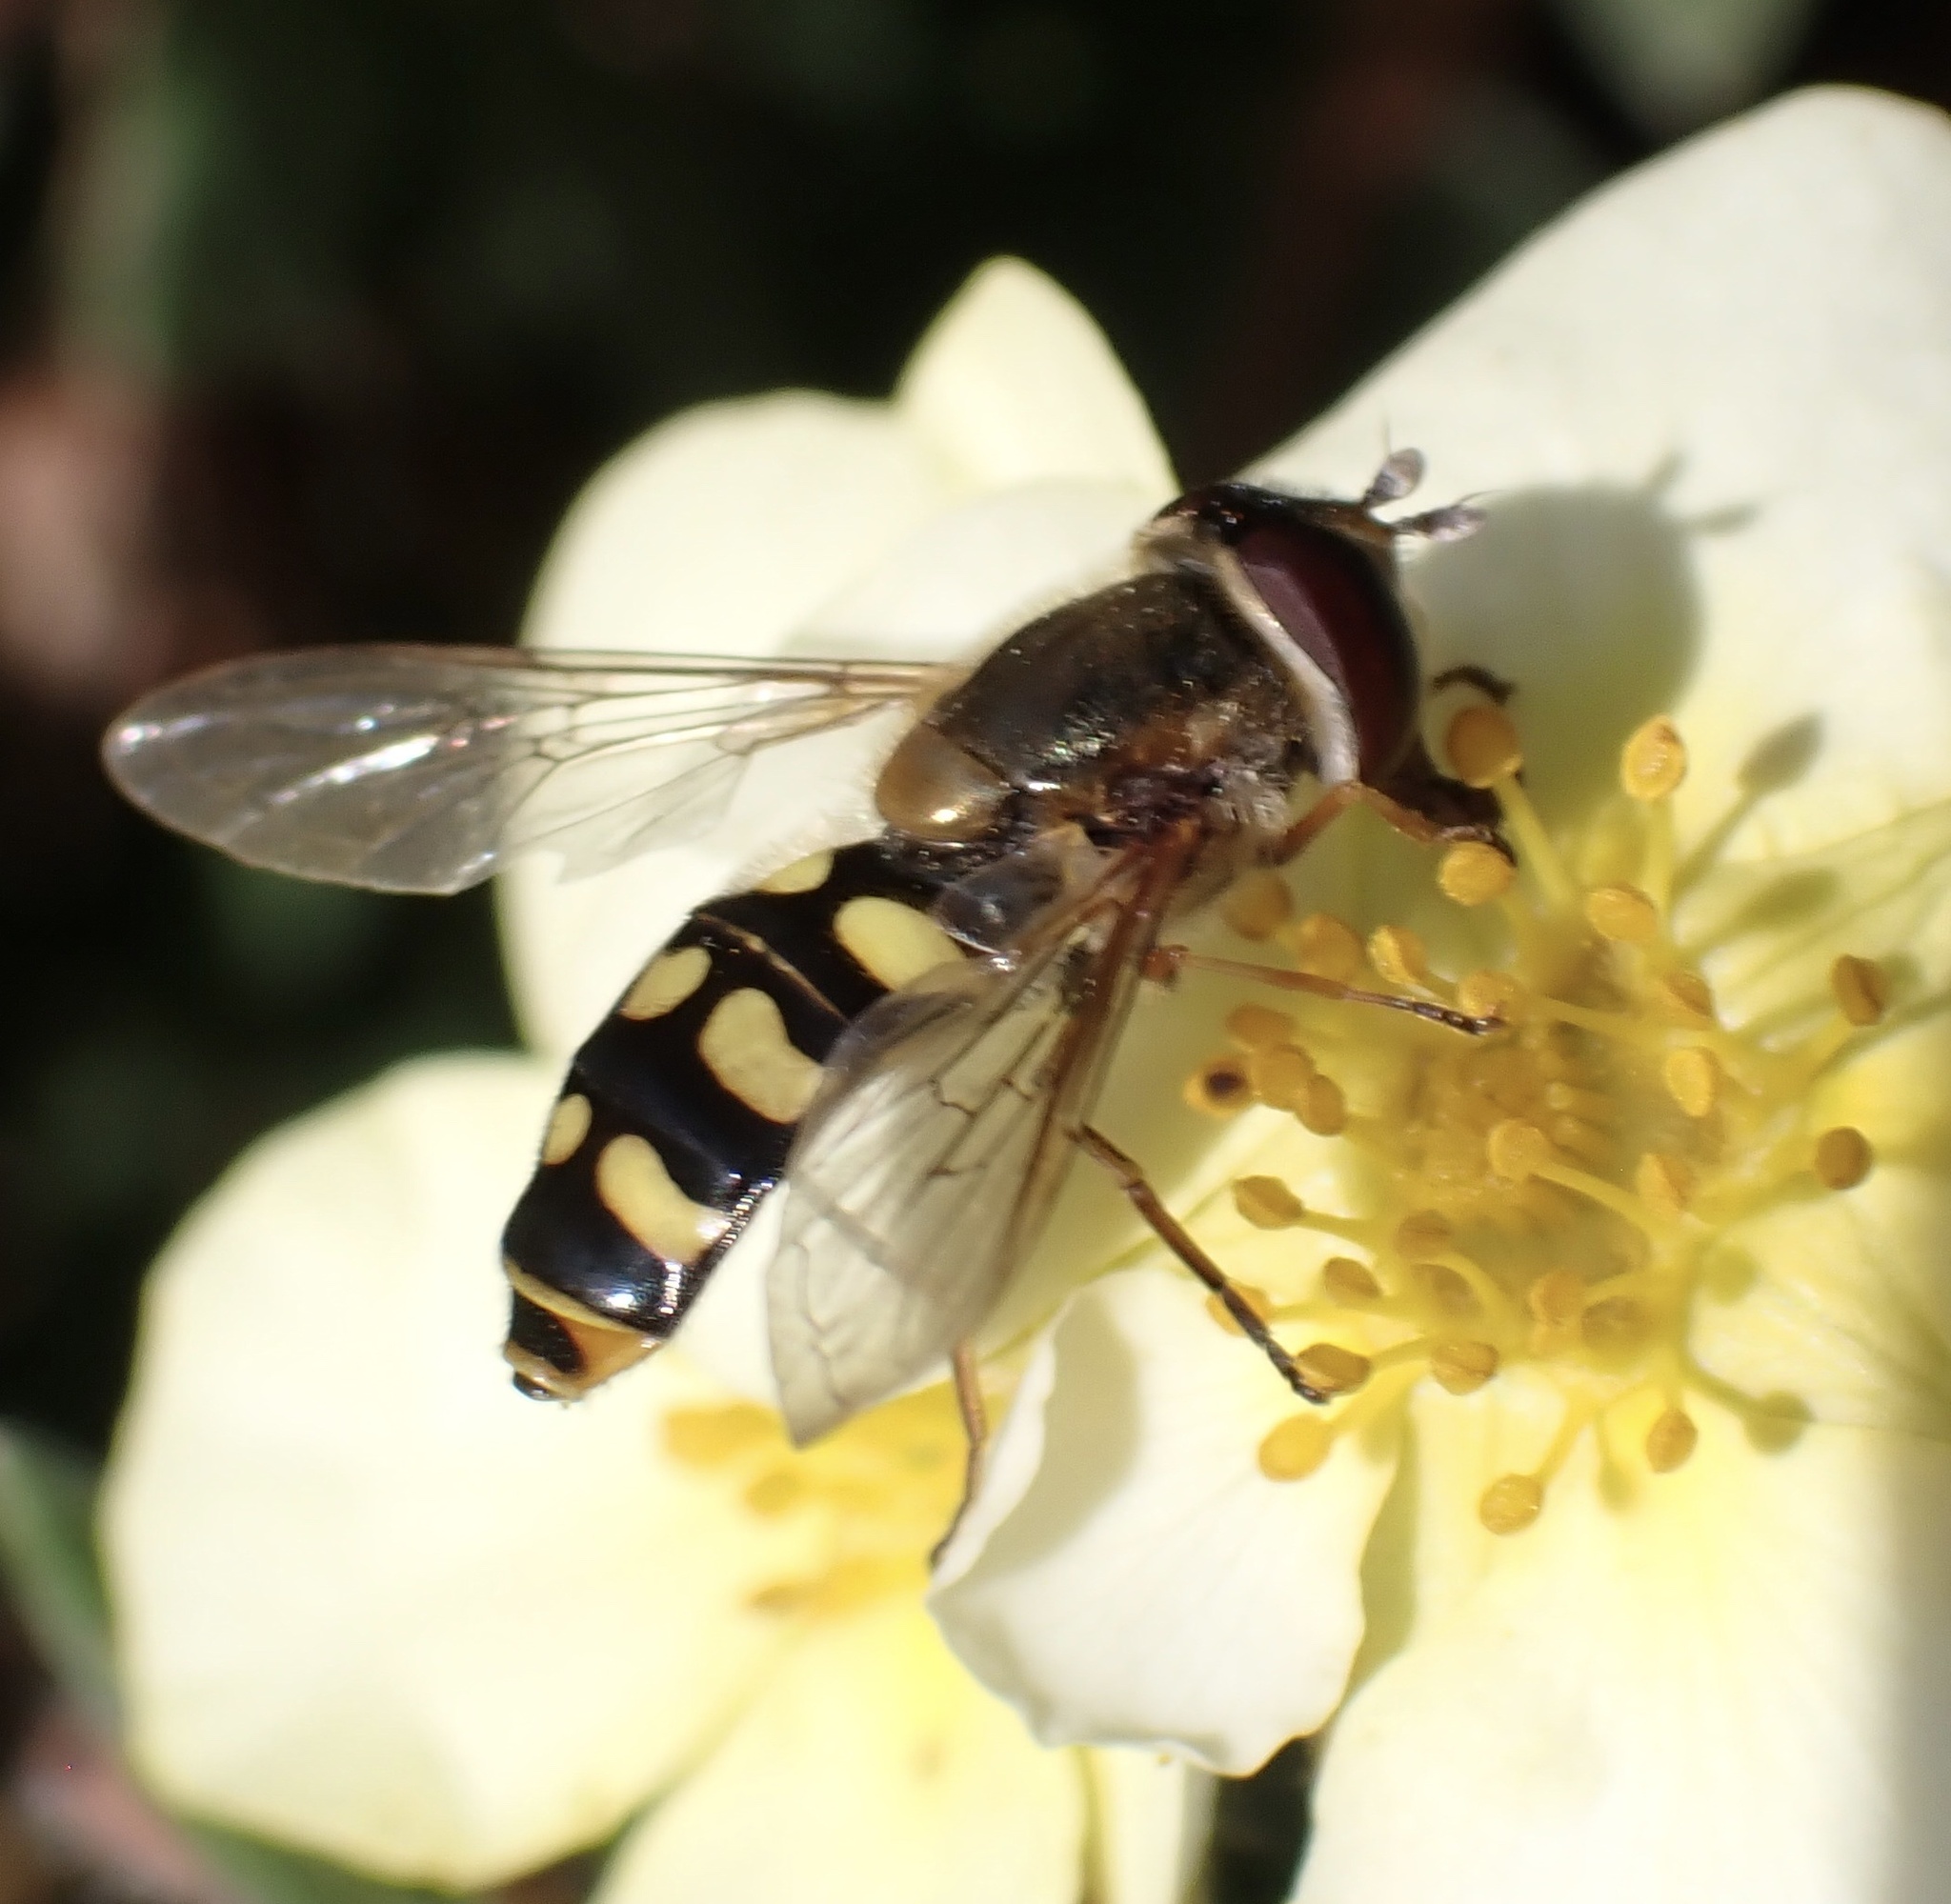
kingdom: Animalia
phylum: Arthropoda
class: Insecta
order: Diptera
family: Syrphidae
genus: Eupeodes
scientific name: Eupeodes
